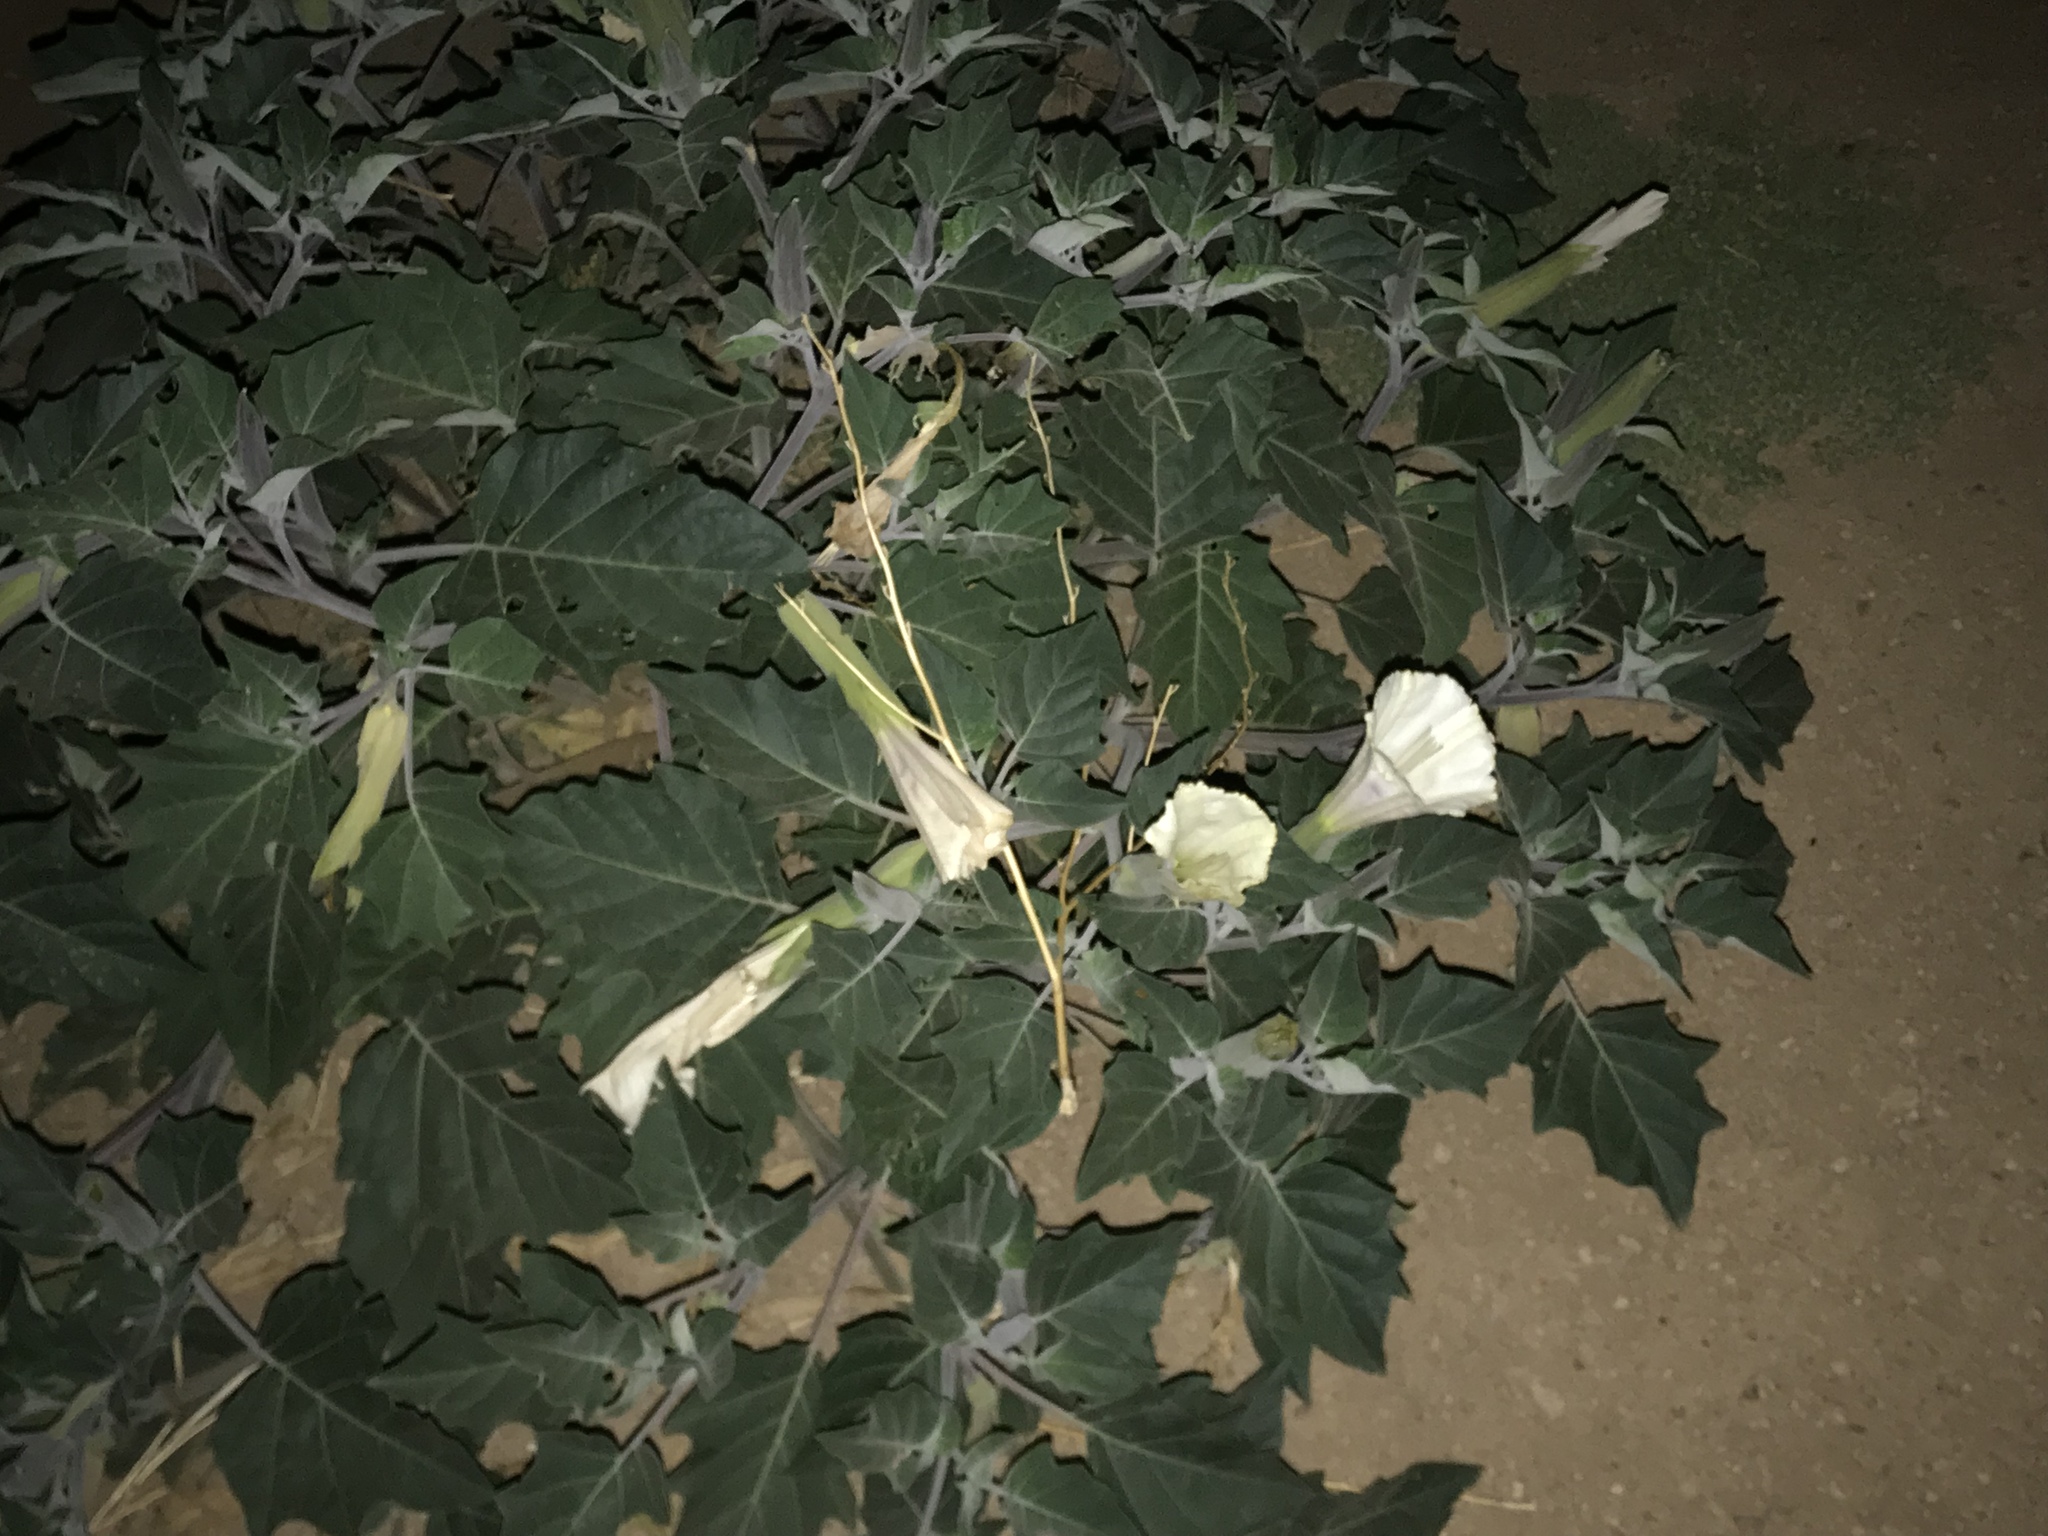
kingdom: Plantae
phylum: Tracheophyta
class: Magnoliopsida
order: Solanales
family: Solanaceae
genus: Datura
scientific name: Datura wrightii
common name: Sacred thorn-apple
